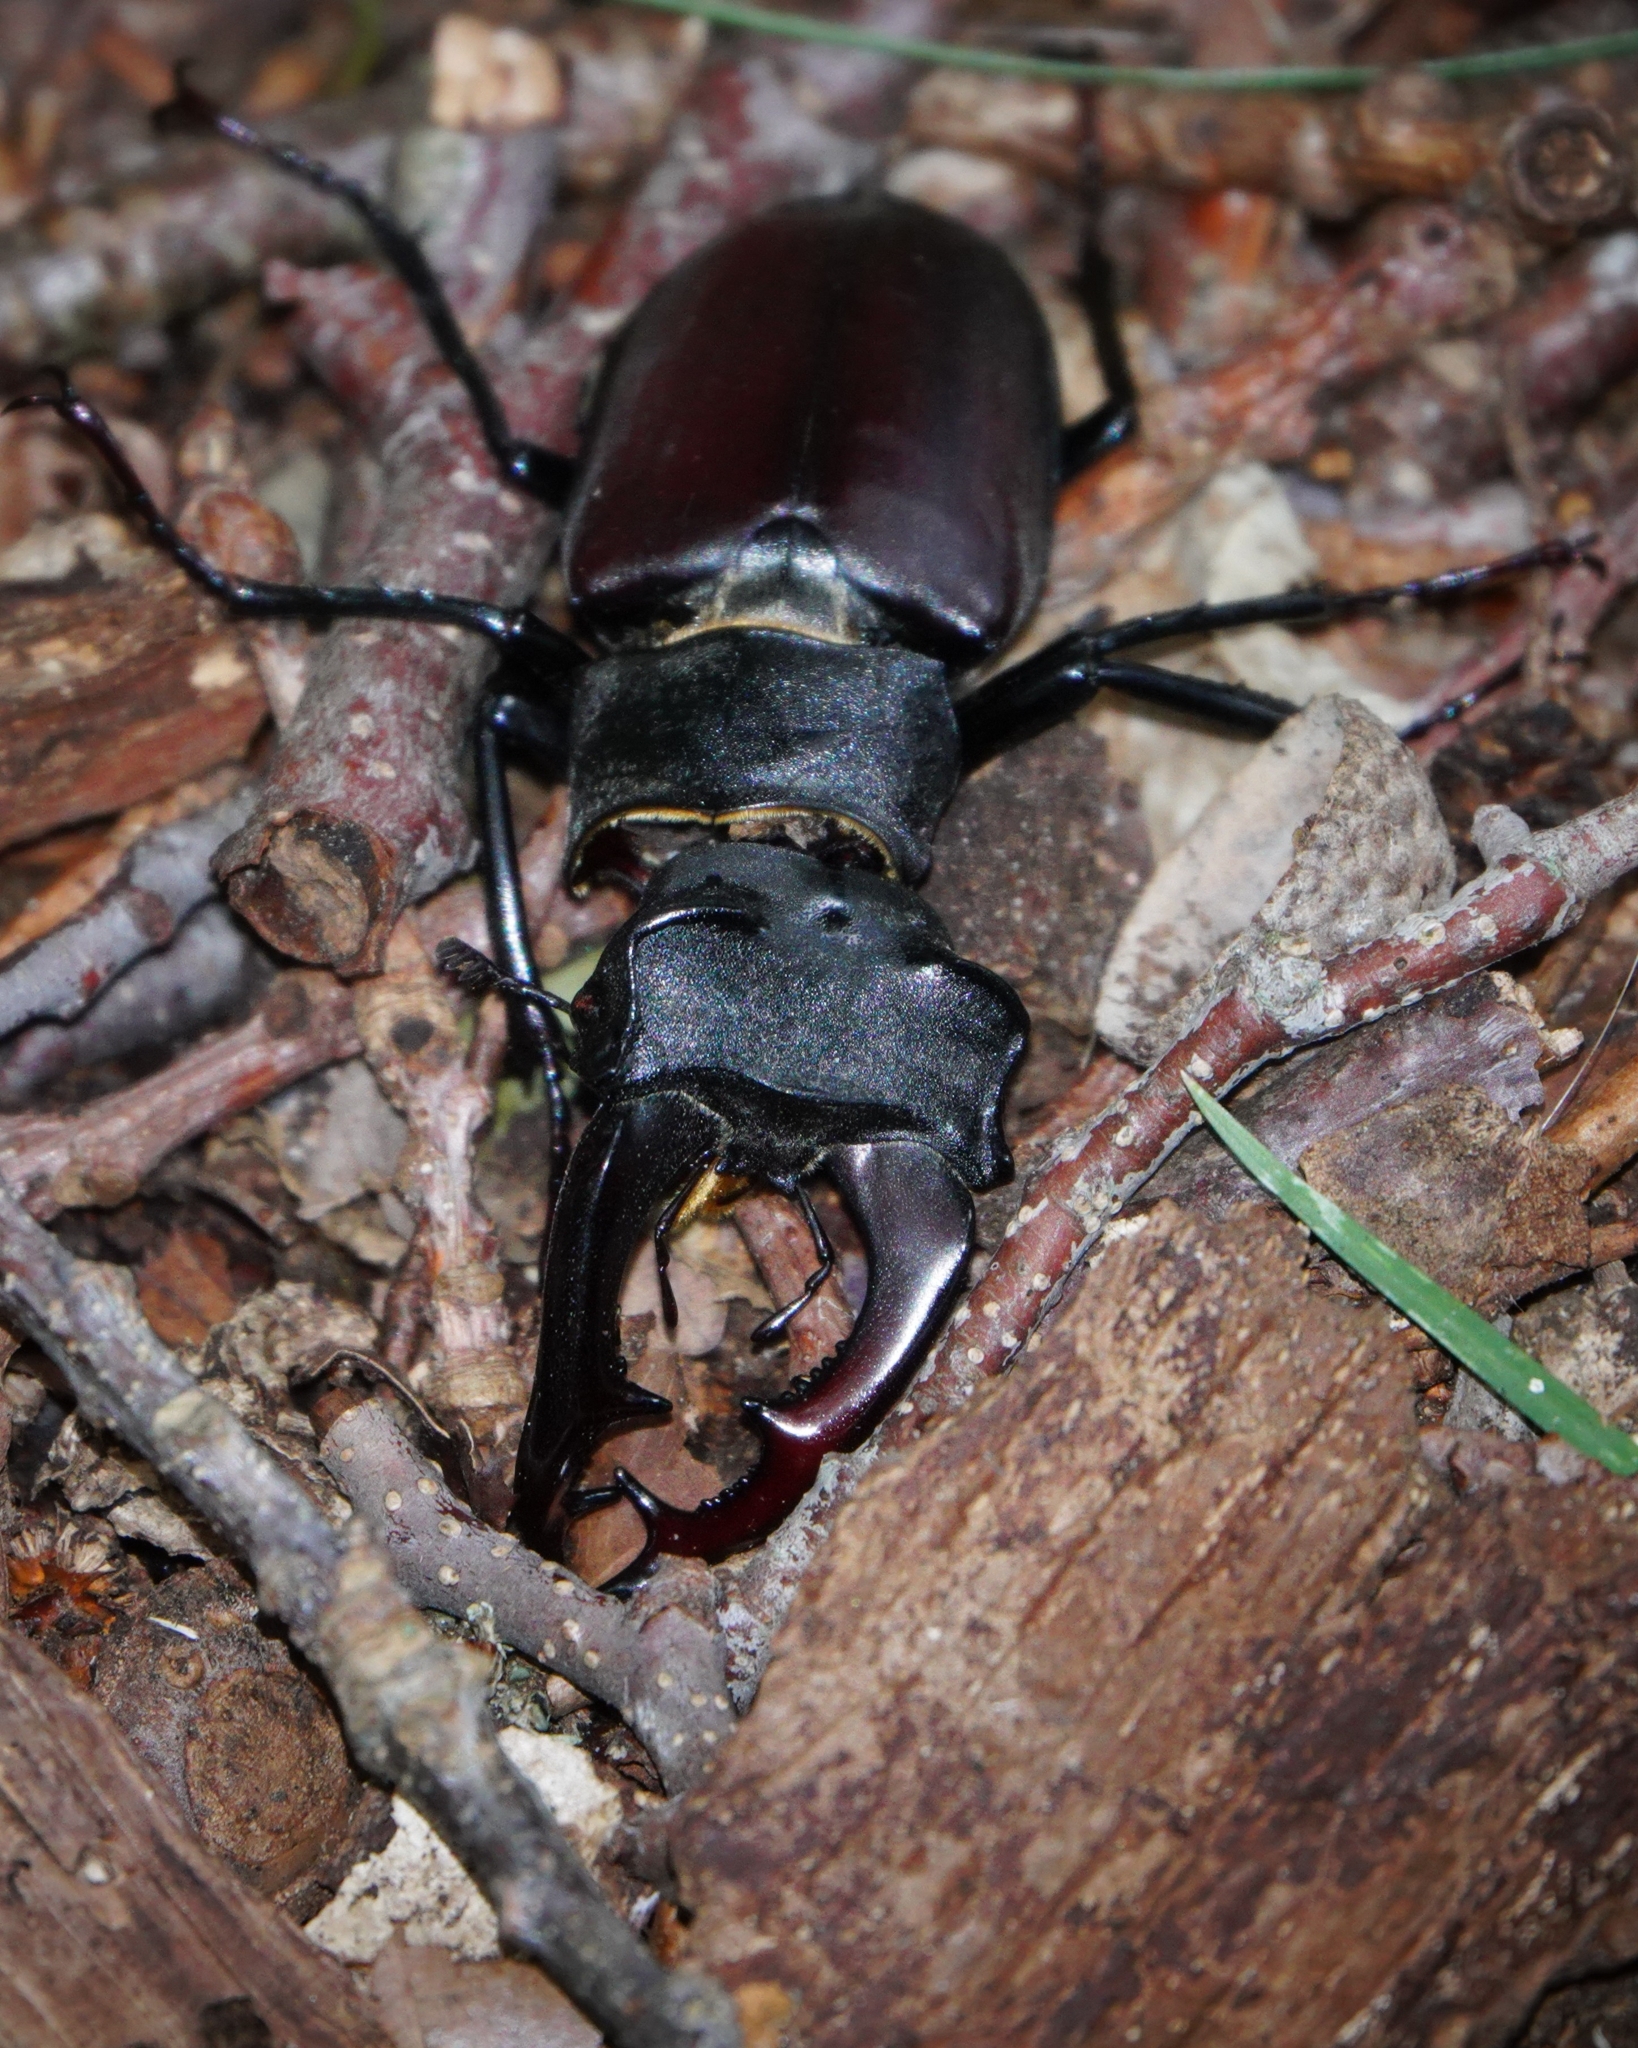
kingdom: Animalia
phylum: Arthropoda
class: Insecta
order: Coleoptera
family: Lucanidae
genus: Lucanus
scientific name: Lucanus cervus
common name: Stag beetle
